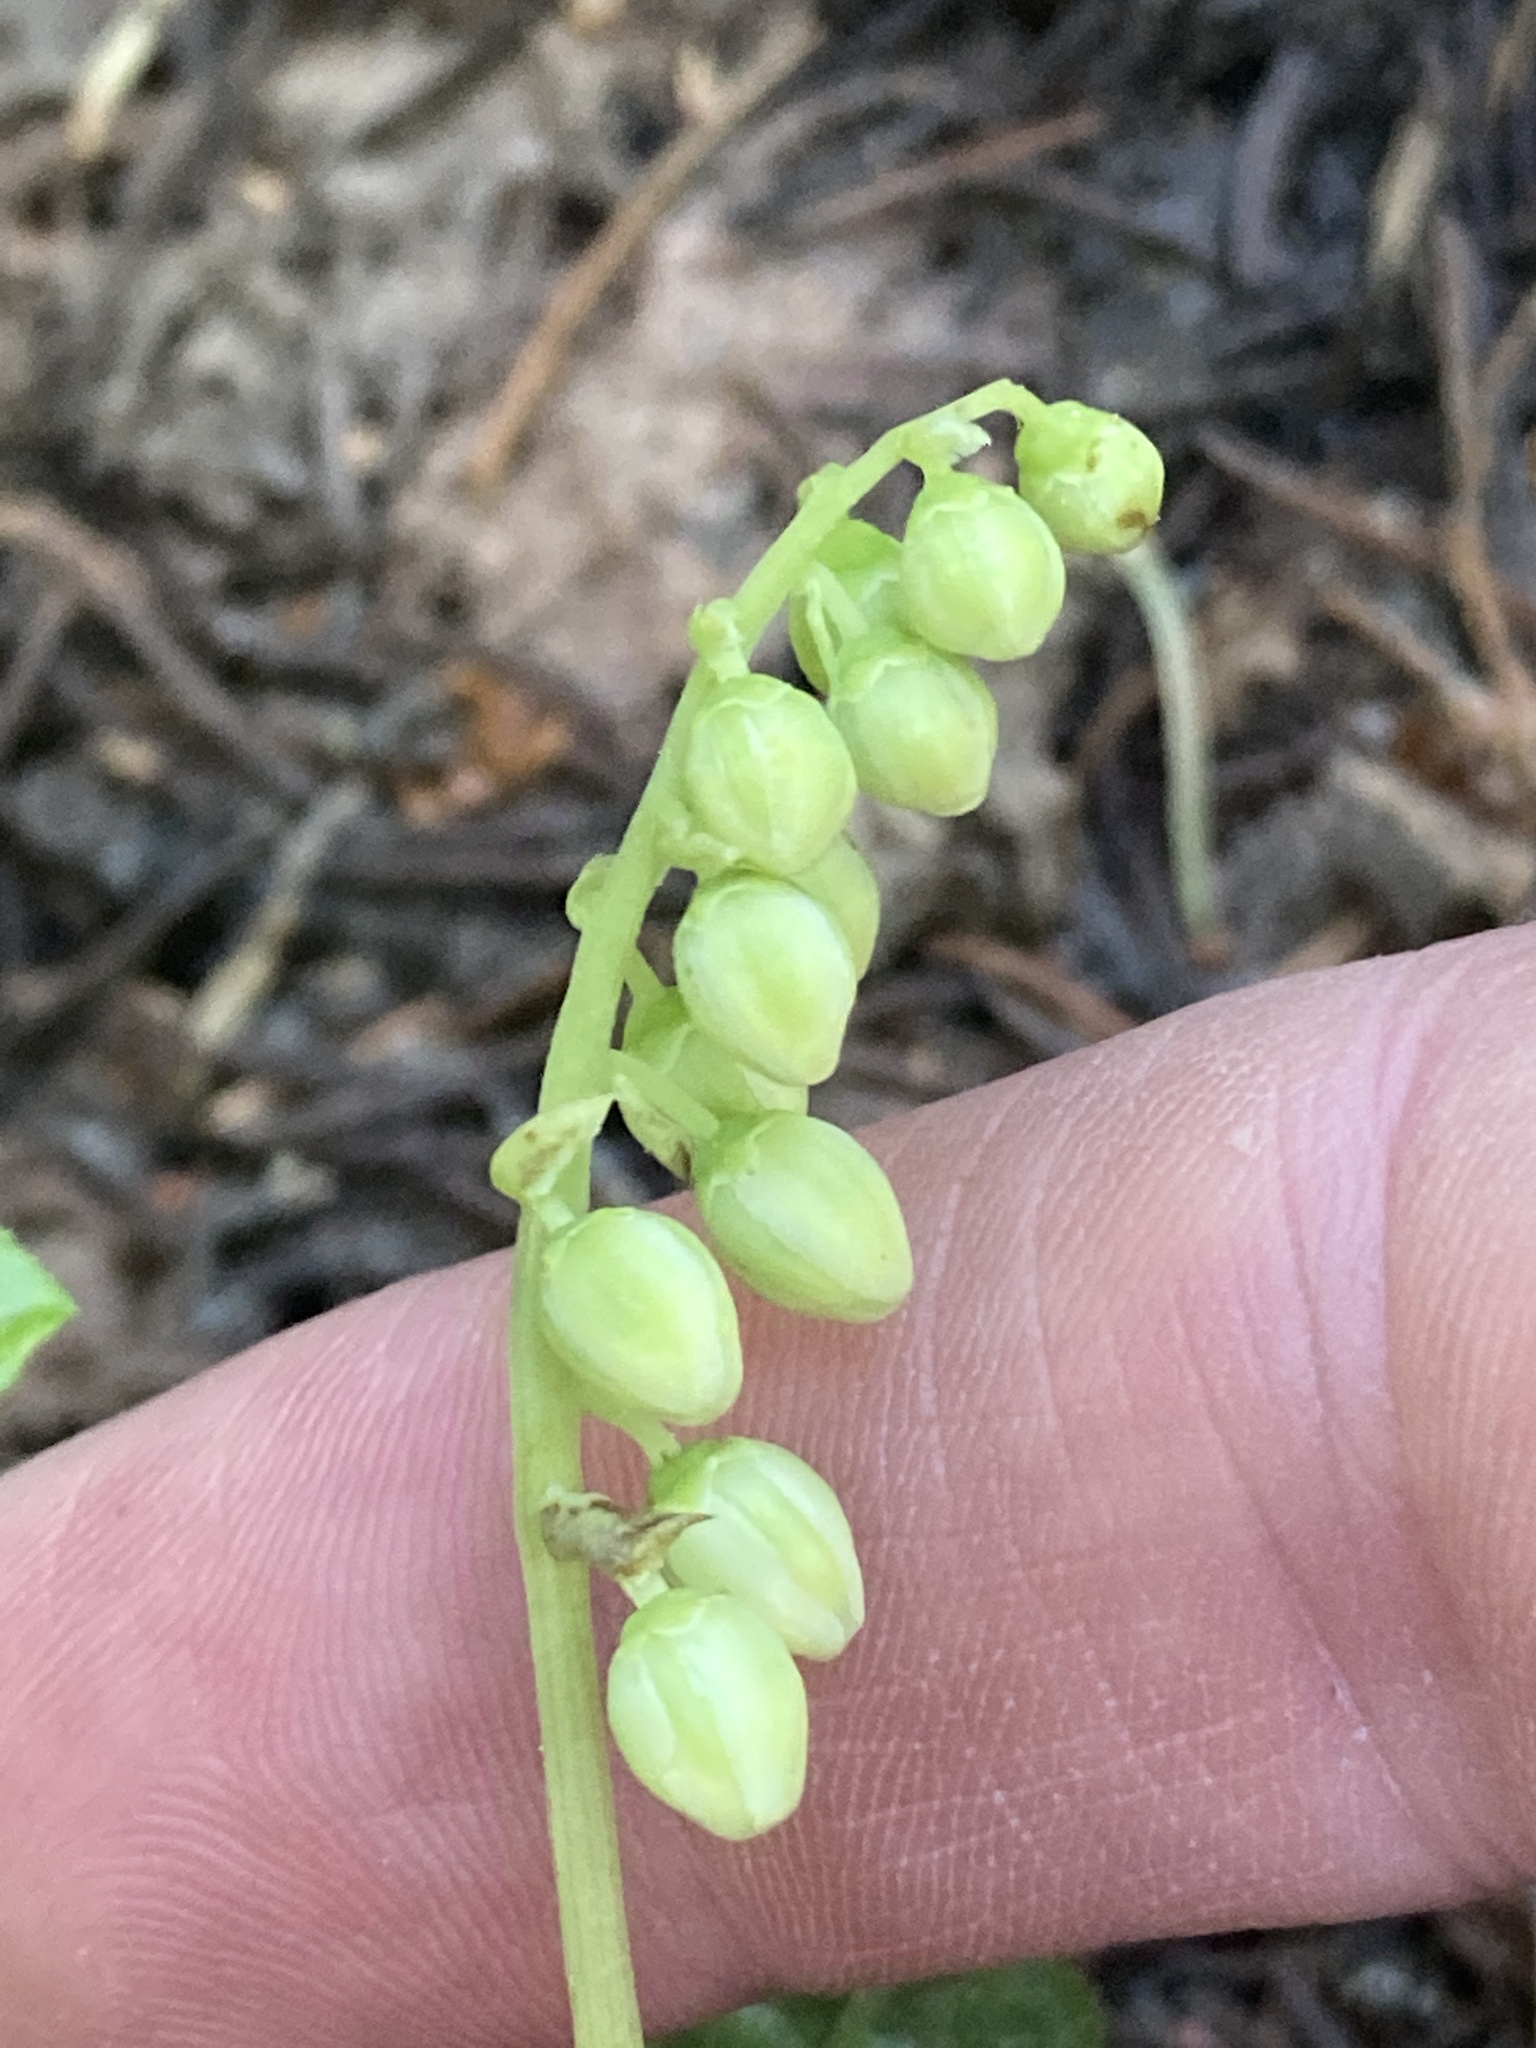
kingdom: Plantae
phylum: Tracheophyta
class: Magnoliopsida
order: Ericales
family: Ericaceae
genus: Orthilia
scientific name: Orthilia secunda
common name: One-sided orthilia
